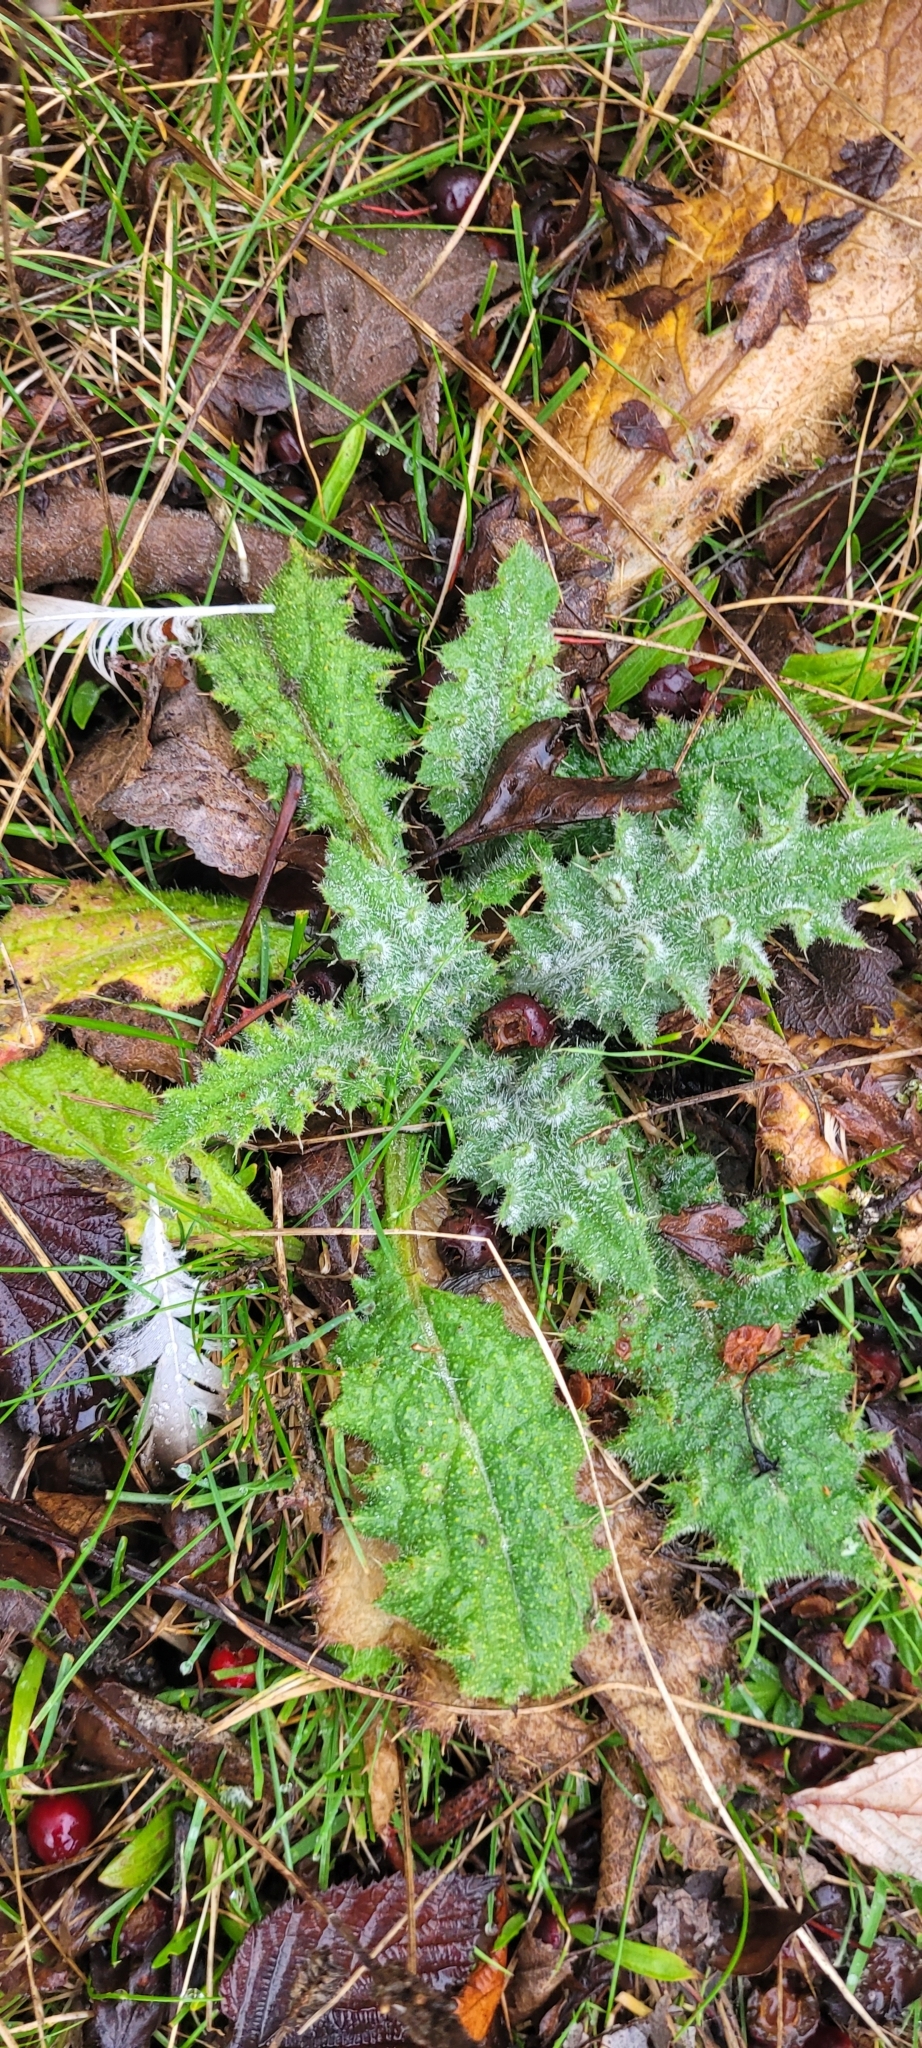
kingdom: Plantae
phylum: Tracheophyta
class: Magnoliopsida
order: Asterales
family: Asteraceae
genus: Cirsium
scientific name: Cirsium vulgare
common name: Bull thistle
